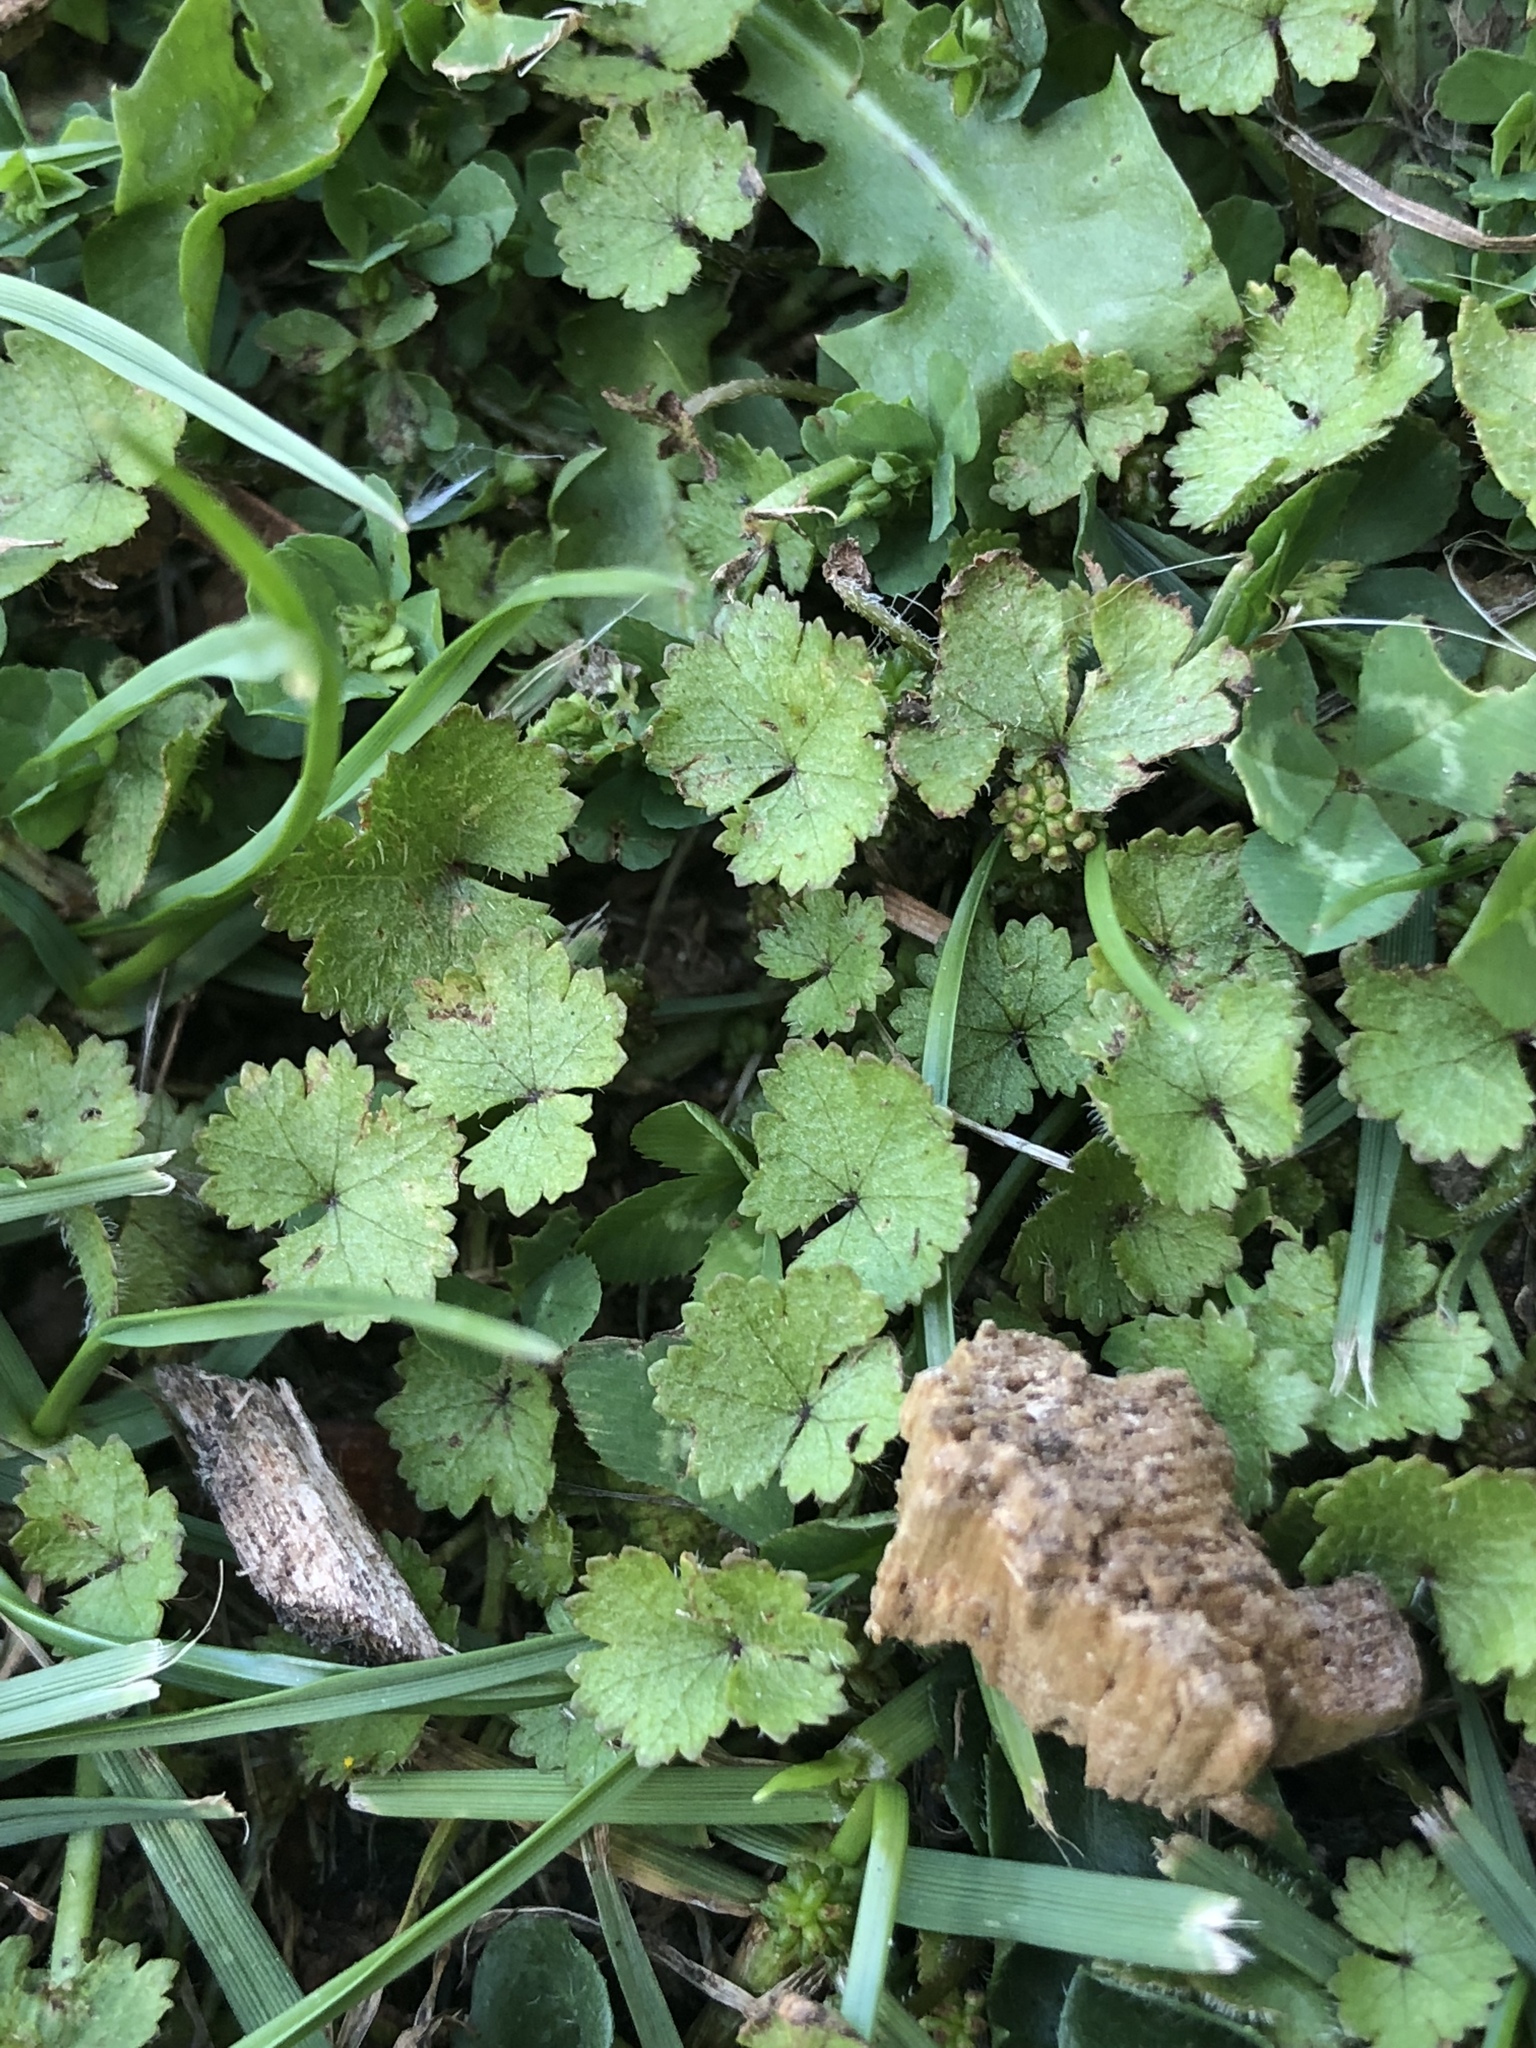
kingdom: Plantae
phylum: Tracheophyta
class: Magnoliopsida
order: Apiales
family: Araliaceae
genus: Hydrocotyle
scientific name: Hydrocotyle moschata
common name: Hairy pennywort
